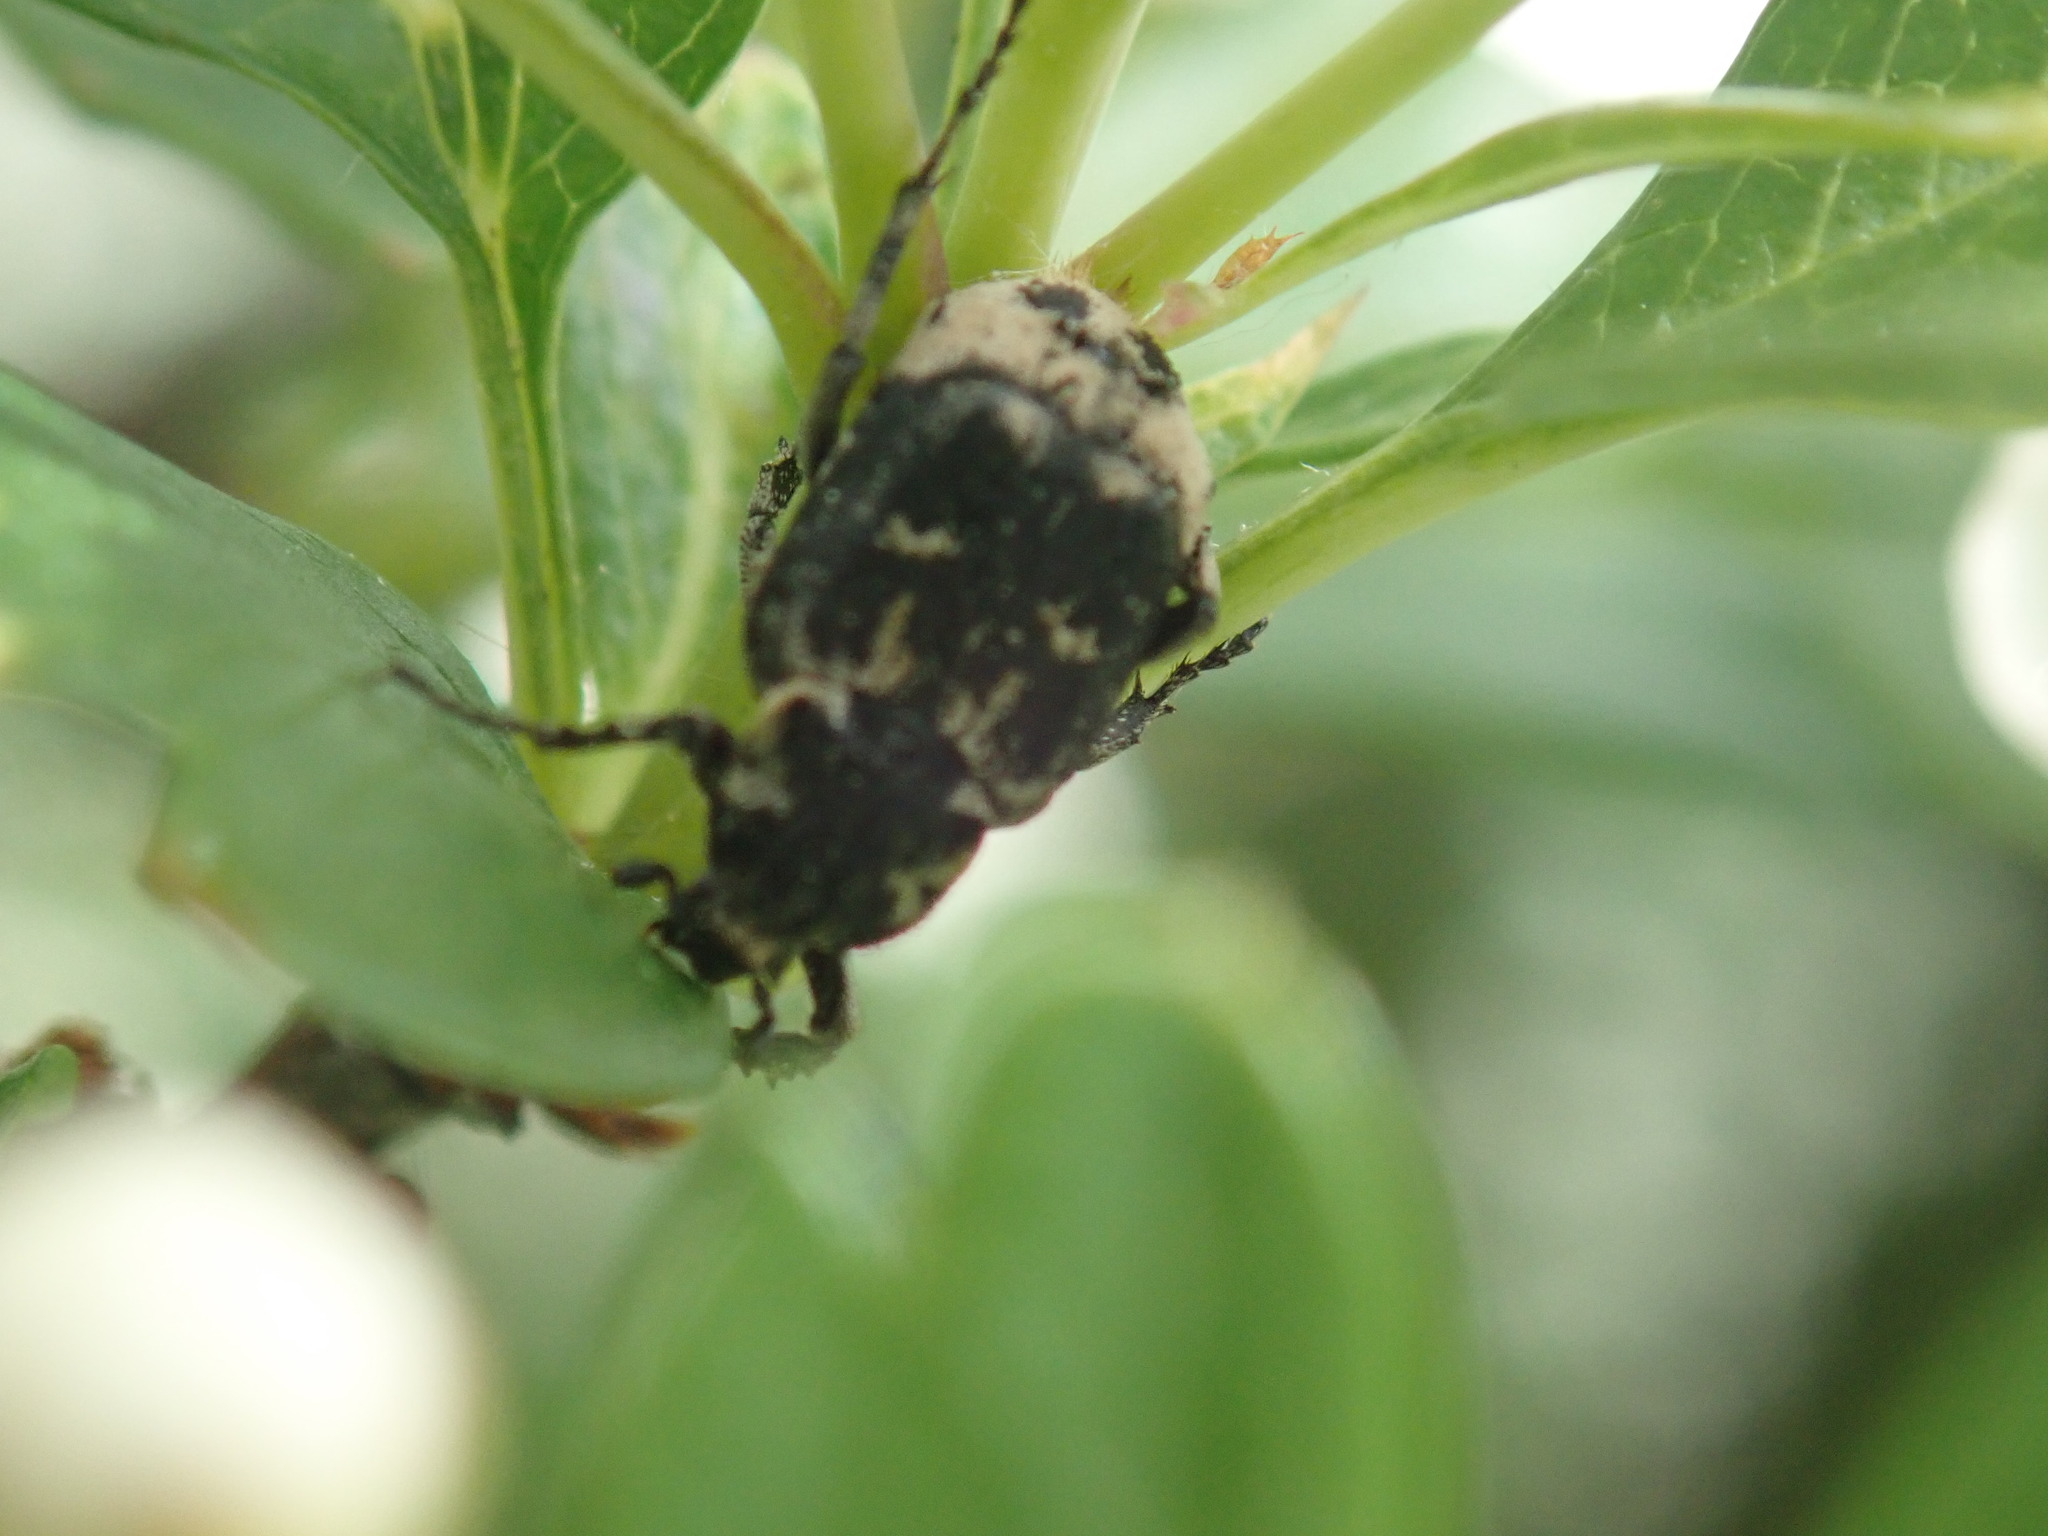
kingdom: Animalia
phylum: Arthropoda
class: Insecta
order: Coleoptera
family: Scarabaeidae
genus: Valgus
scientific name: Valgus hemipterus
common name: Bug flower chafer
